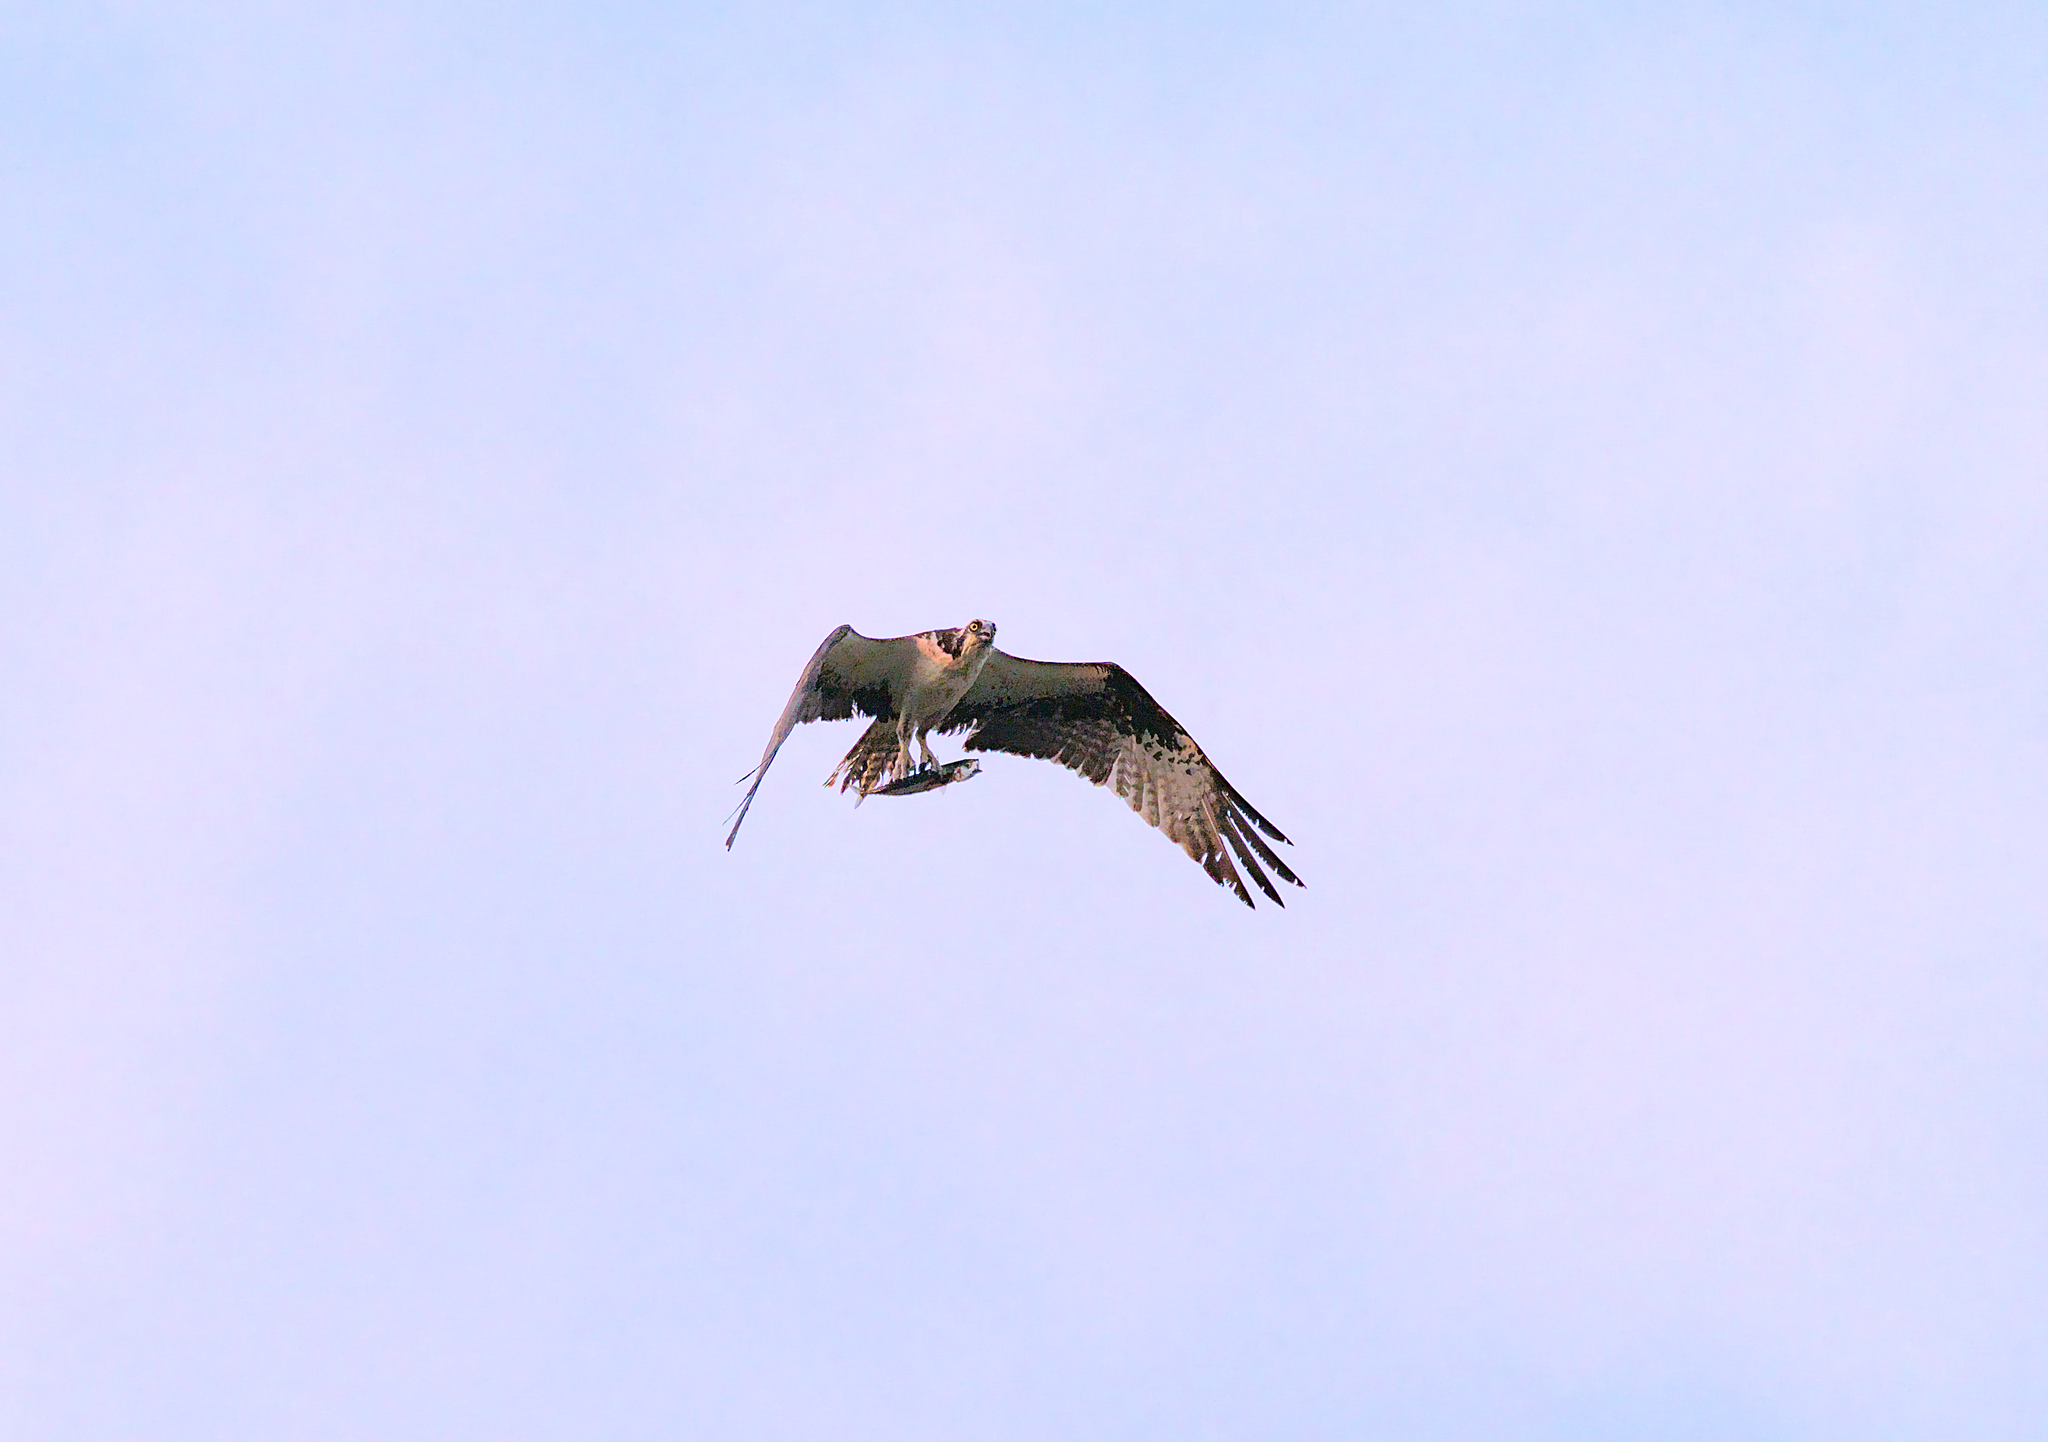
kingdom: Animalia
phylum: Chordata
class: Aves
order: Accipitriformes
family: Pandionidae
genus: Pandion
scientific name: Pandion haliaetus
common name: Osprey
